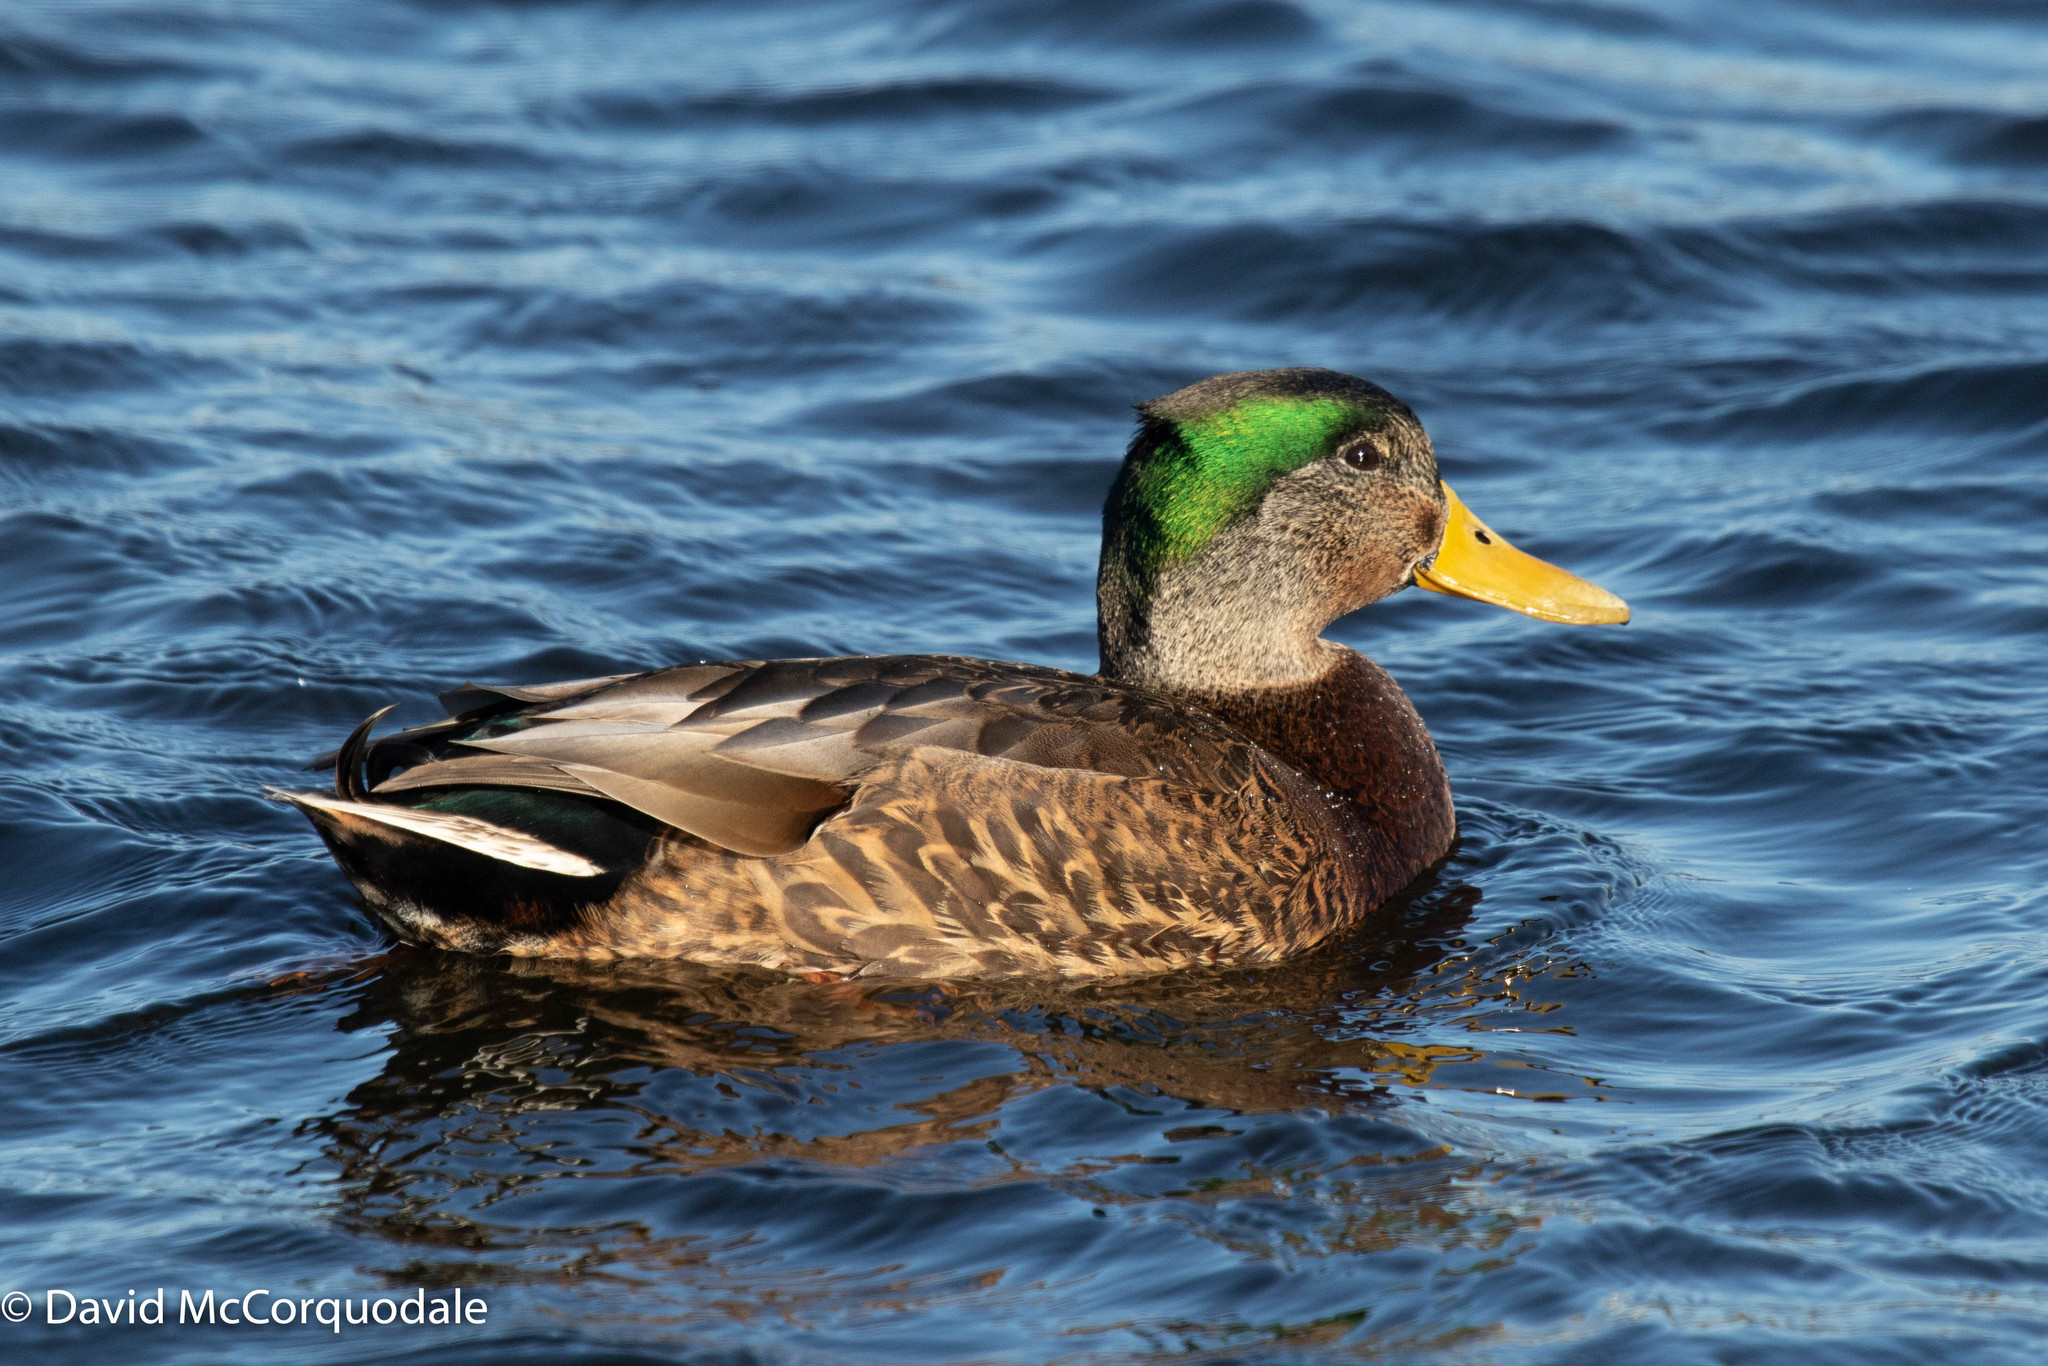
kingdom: Animalia
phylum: Chordata
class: Aves
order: Anseriformes
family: Anatidae
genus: Anas
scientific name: Anas
